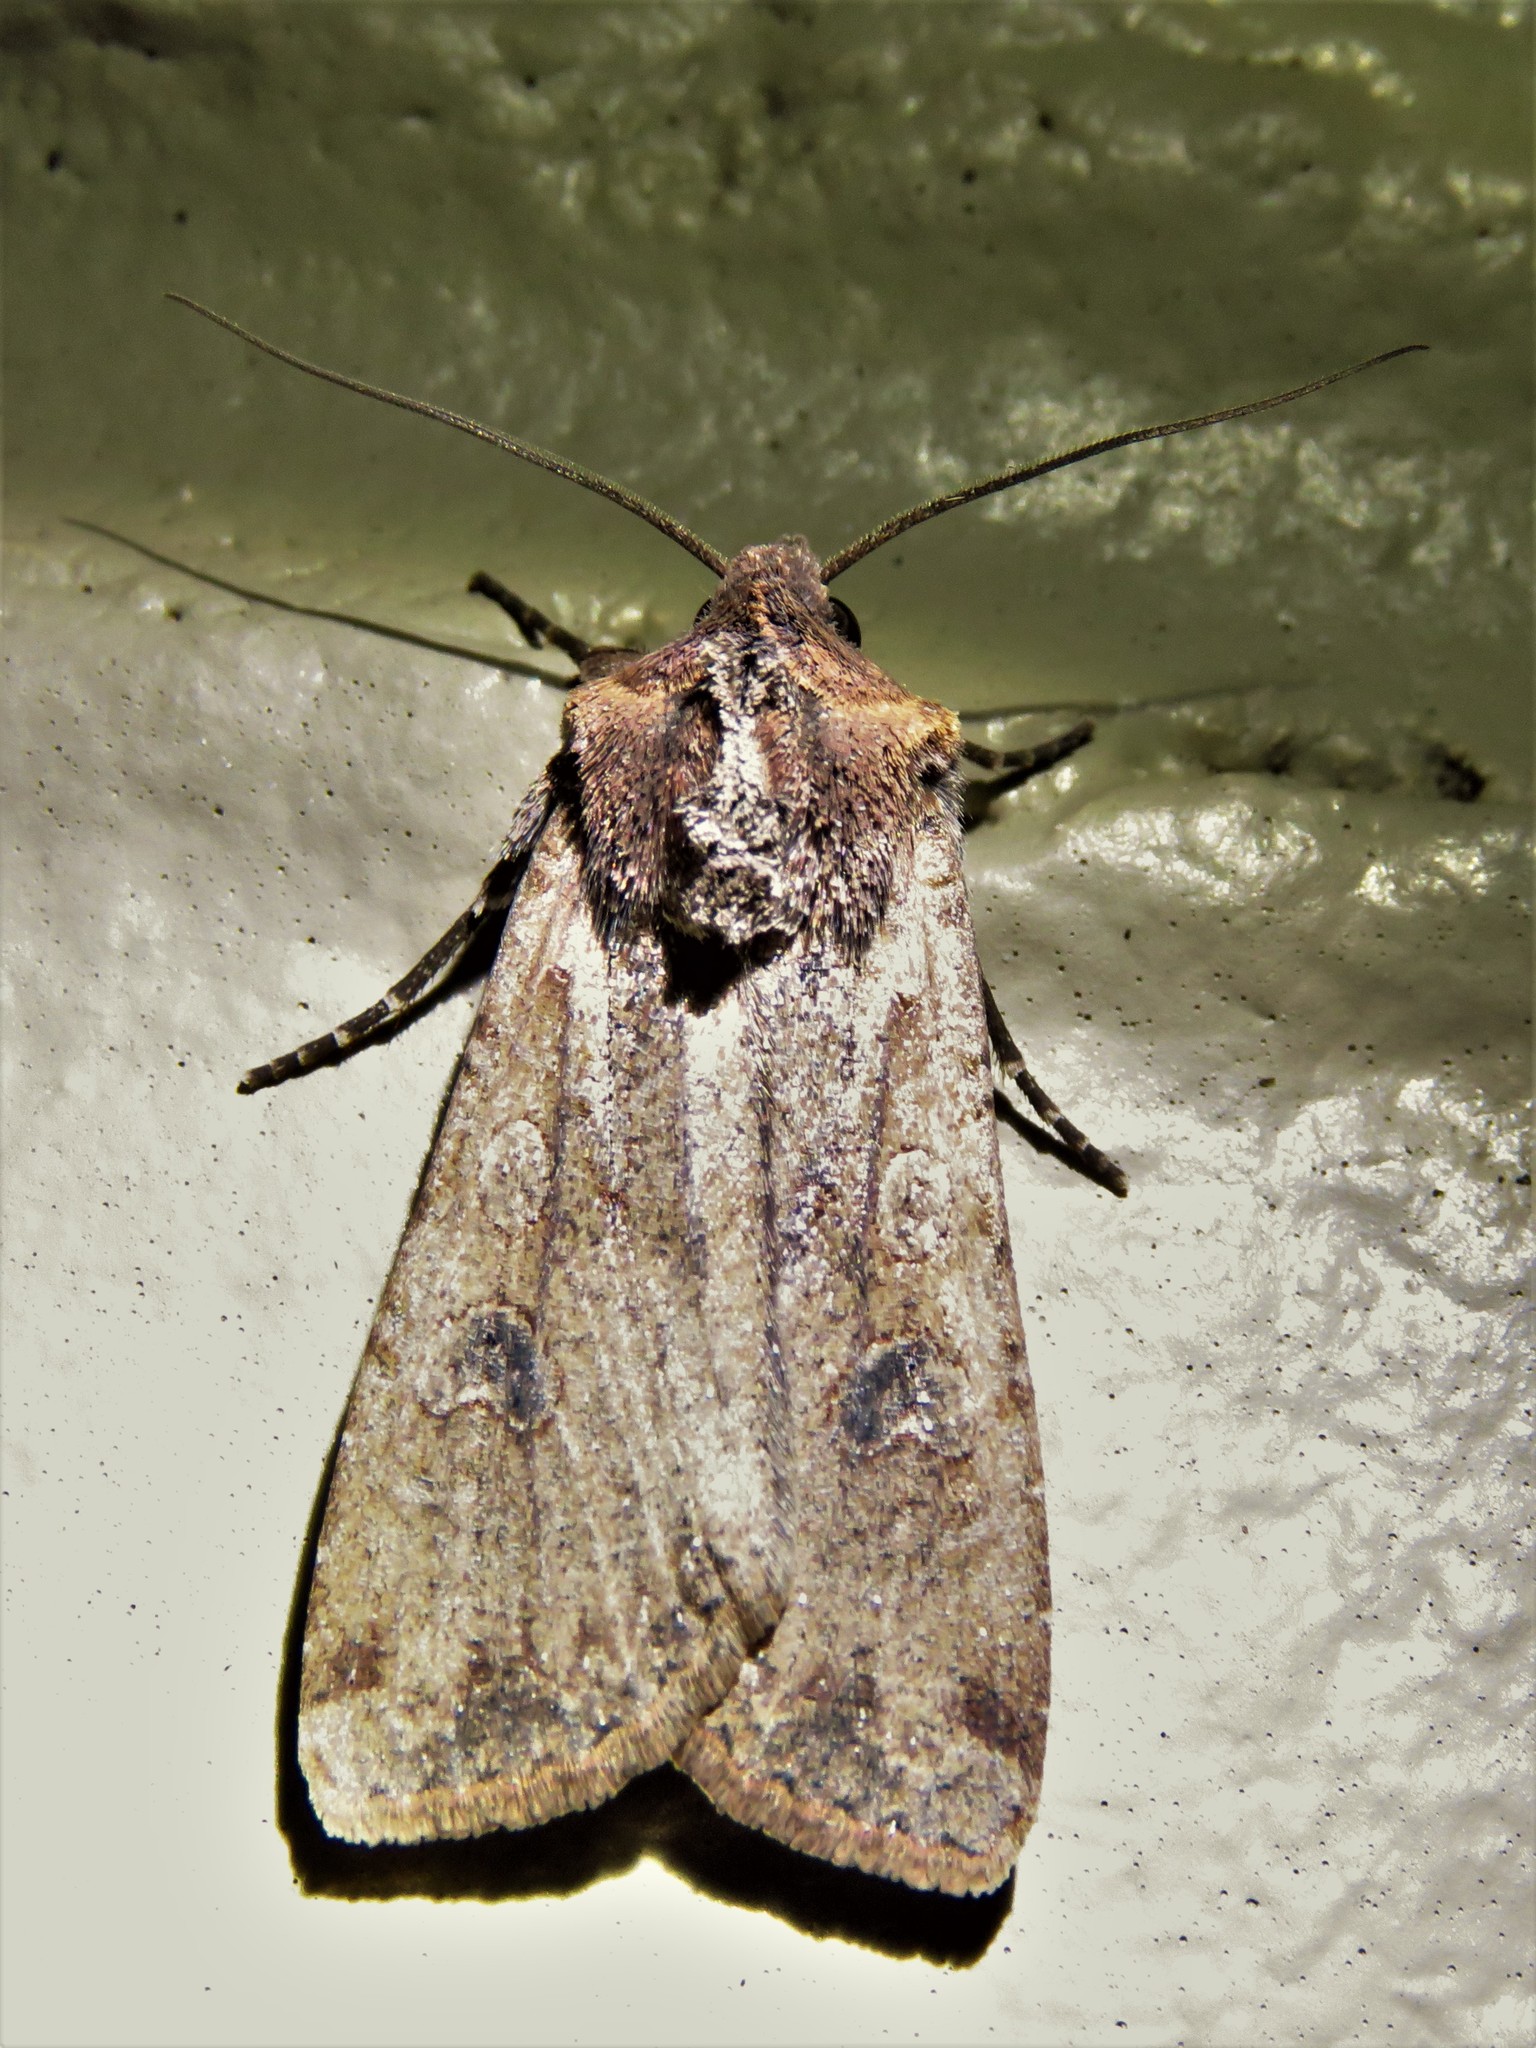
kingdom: Animalia
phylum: Arthropoda
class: Insecta
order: Lepidoptera
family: Noctuidae
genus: Peridroma
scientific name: Peridroma saucia
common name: Pearly underwing
